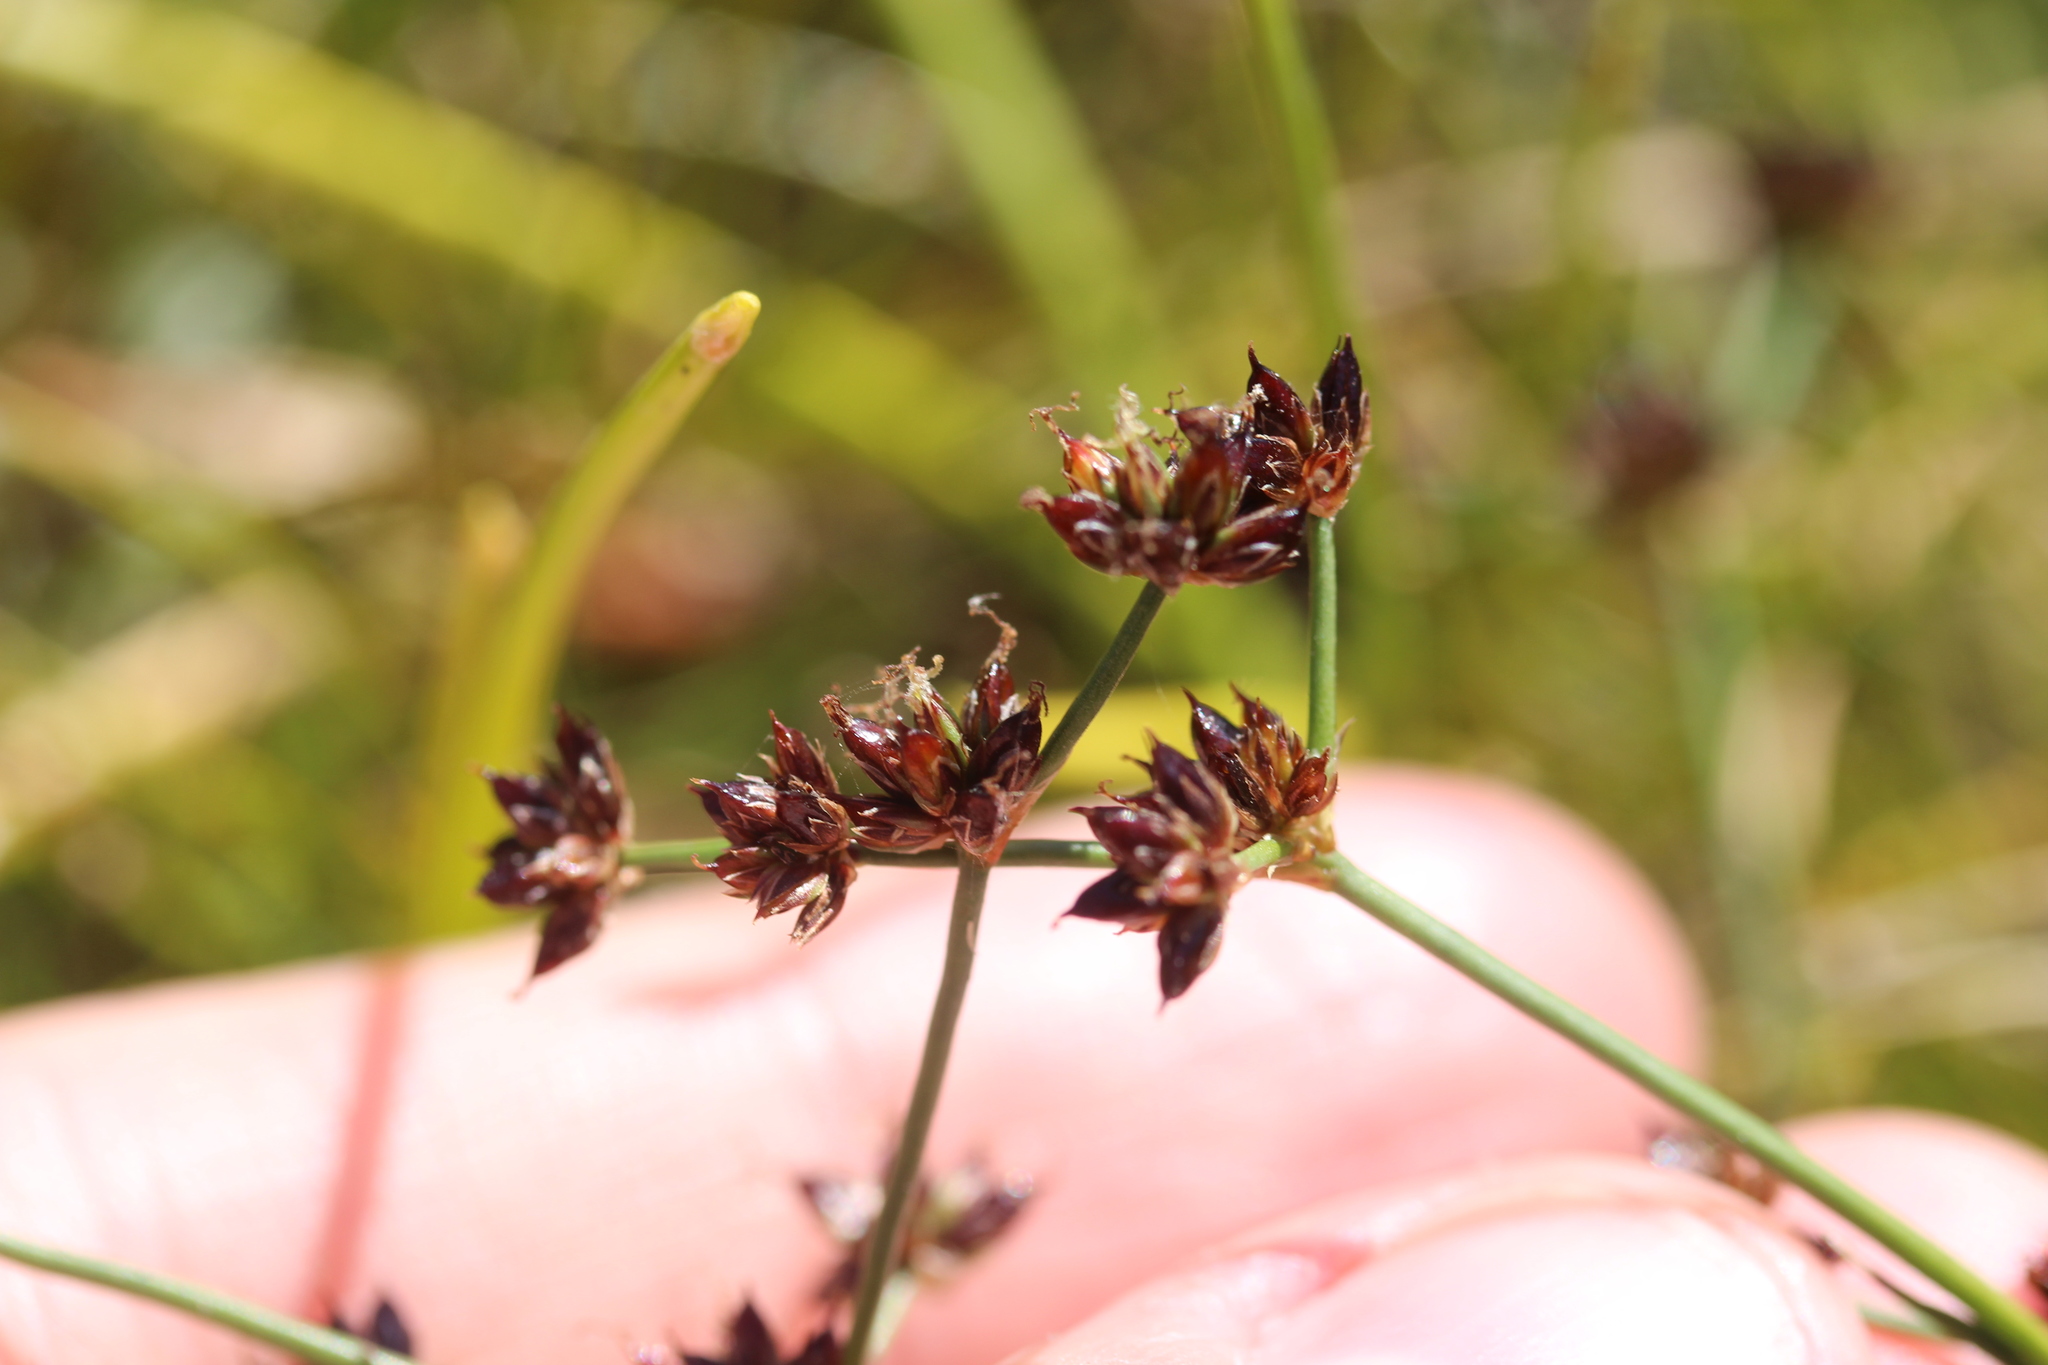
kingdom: Plantae
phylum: Tracheophyta
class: Liliopsida
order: Poales
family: Juncaceae
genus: Juncus
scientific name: Juncus articulatus
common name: Jointed rush
